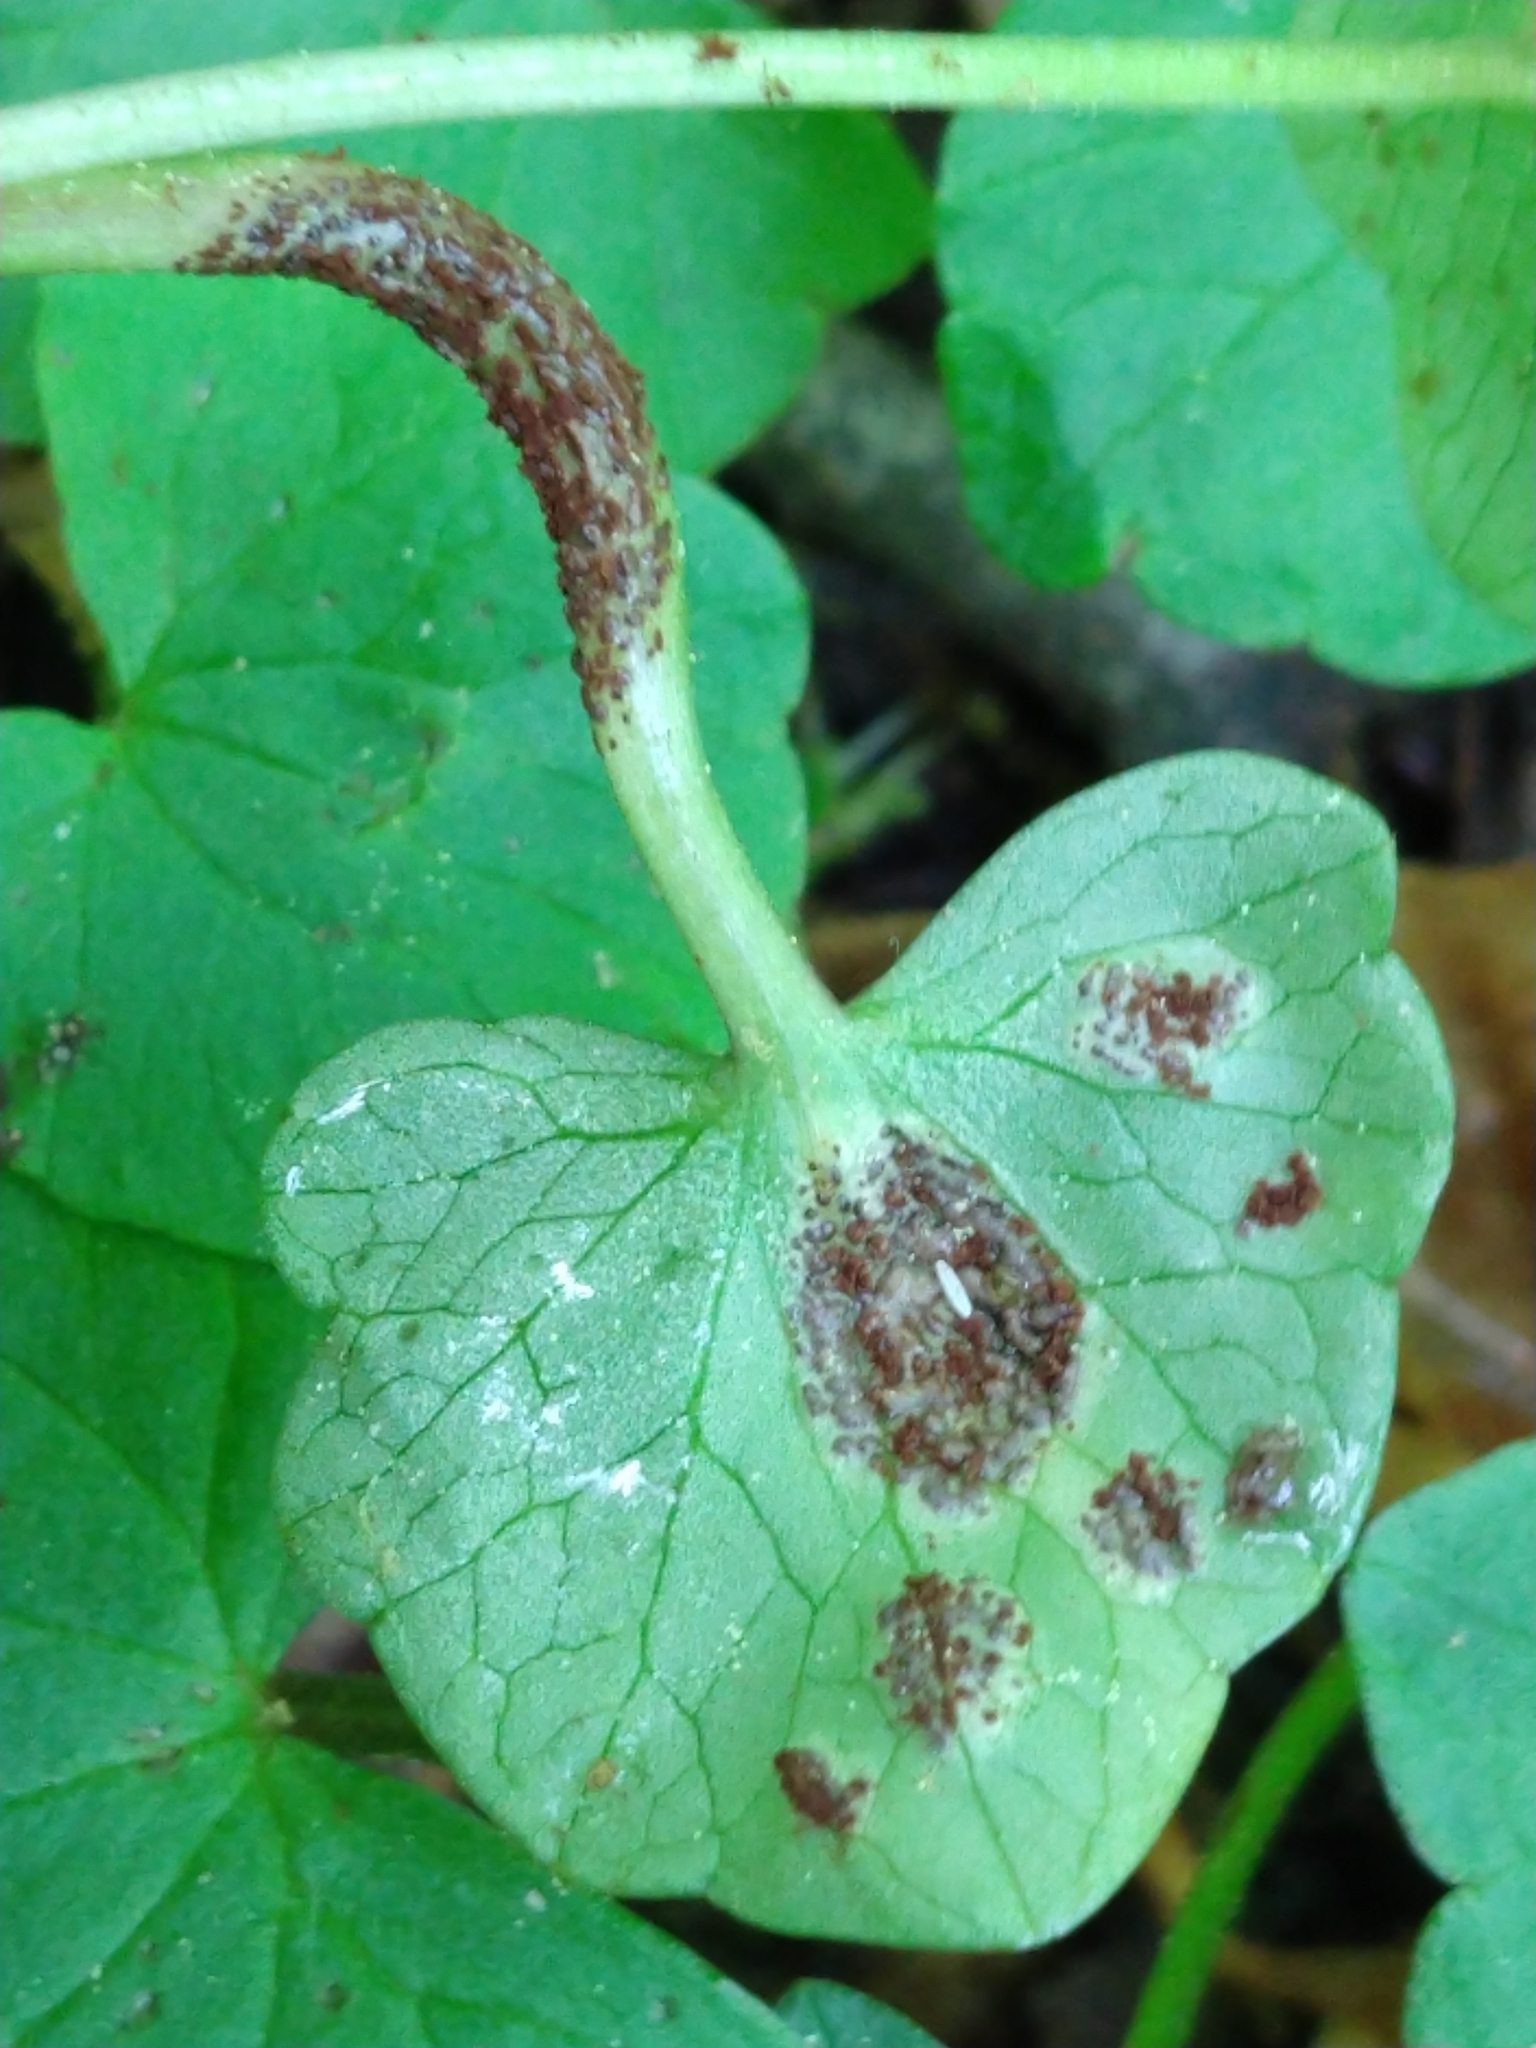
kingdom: Fungi
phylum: Basidiomycota
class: Pucciniomycetes
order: Pucciniales
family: Pucciniaceae
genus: Uromyces
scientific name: Uromyces ficariae
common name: Bitter chocolate rust
